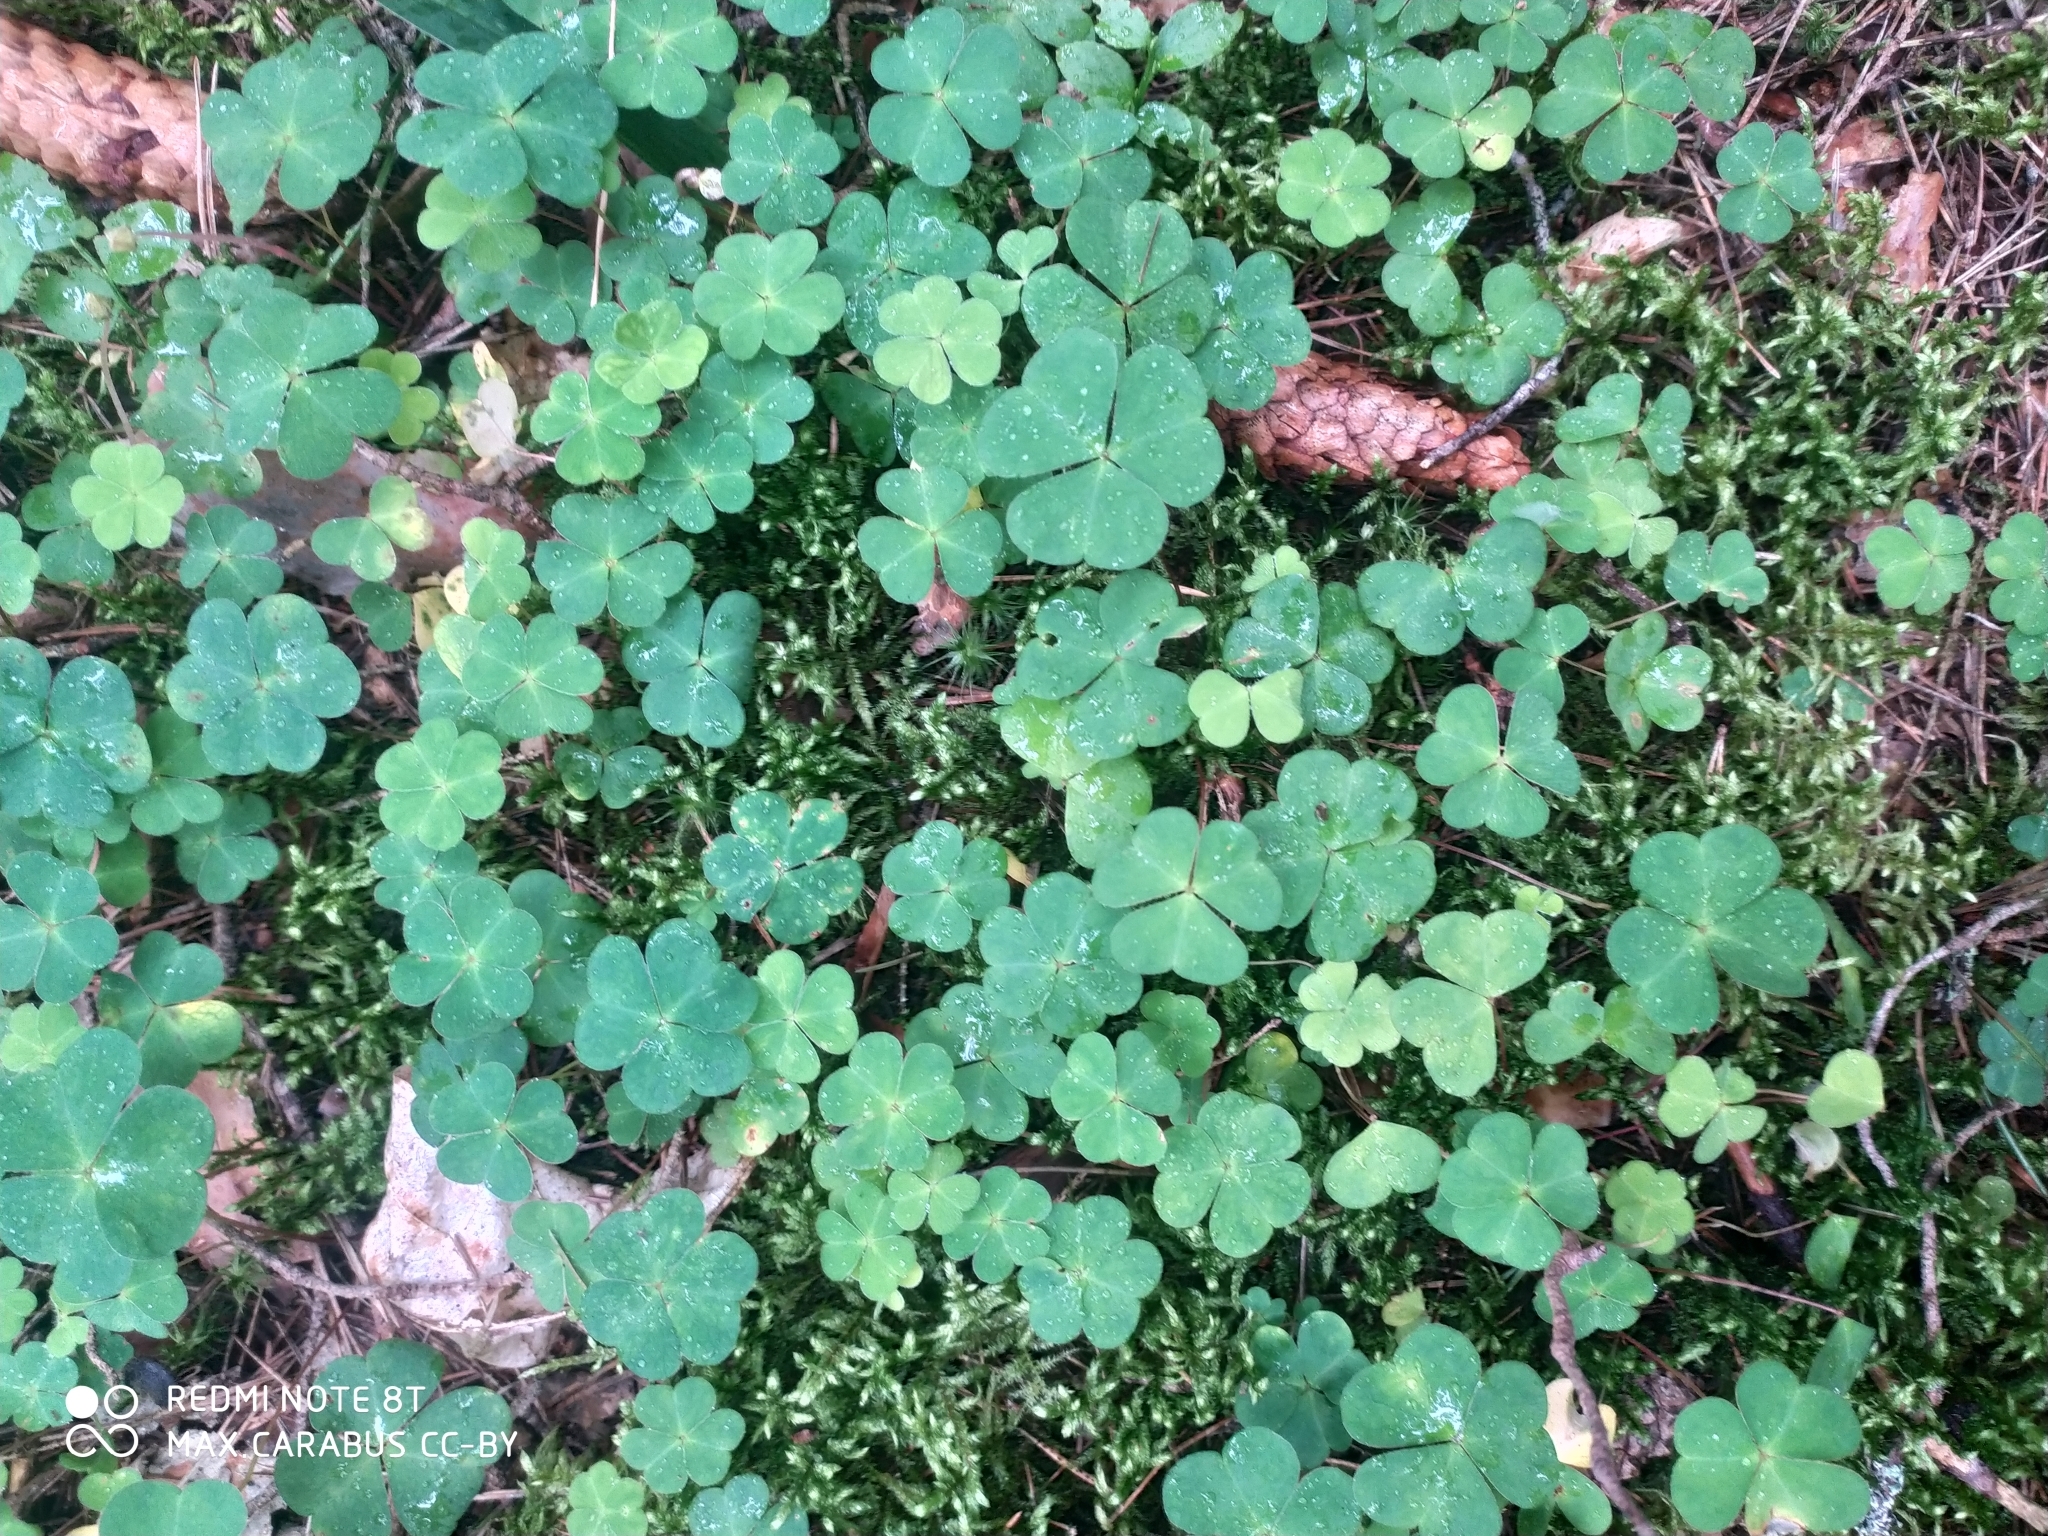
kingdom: Plantae
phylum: Tracheophyta
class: Magnoliopsida
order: Oxalidales
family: Oxalidaceae
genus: Oxalis
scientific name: Oxalis acetosella
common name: Wood-sorrel
